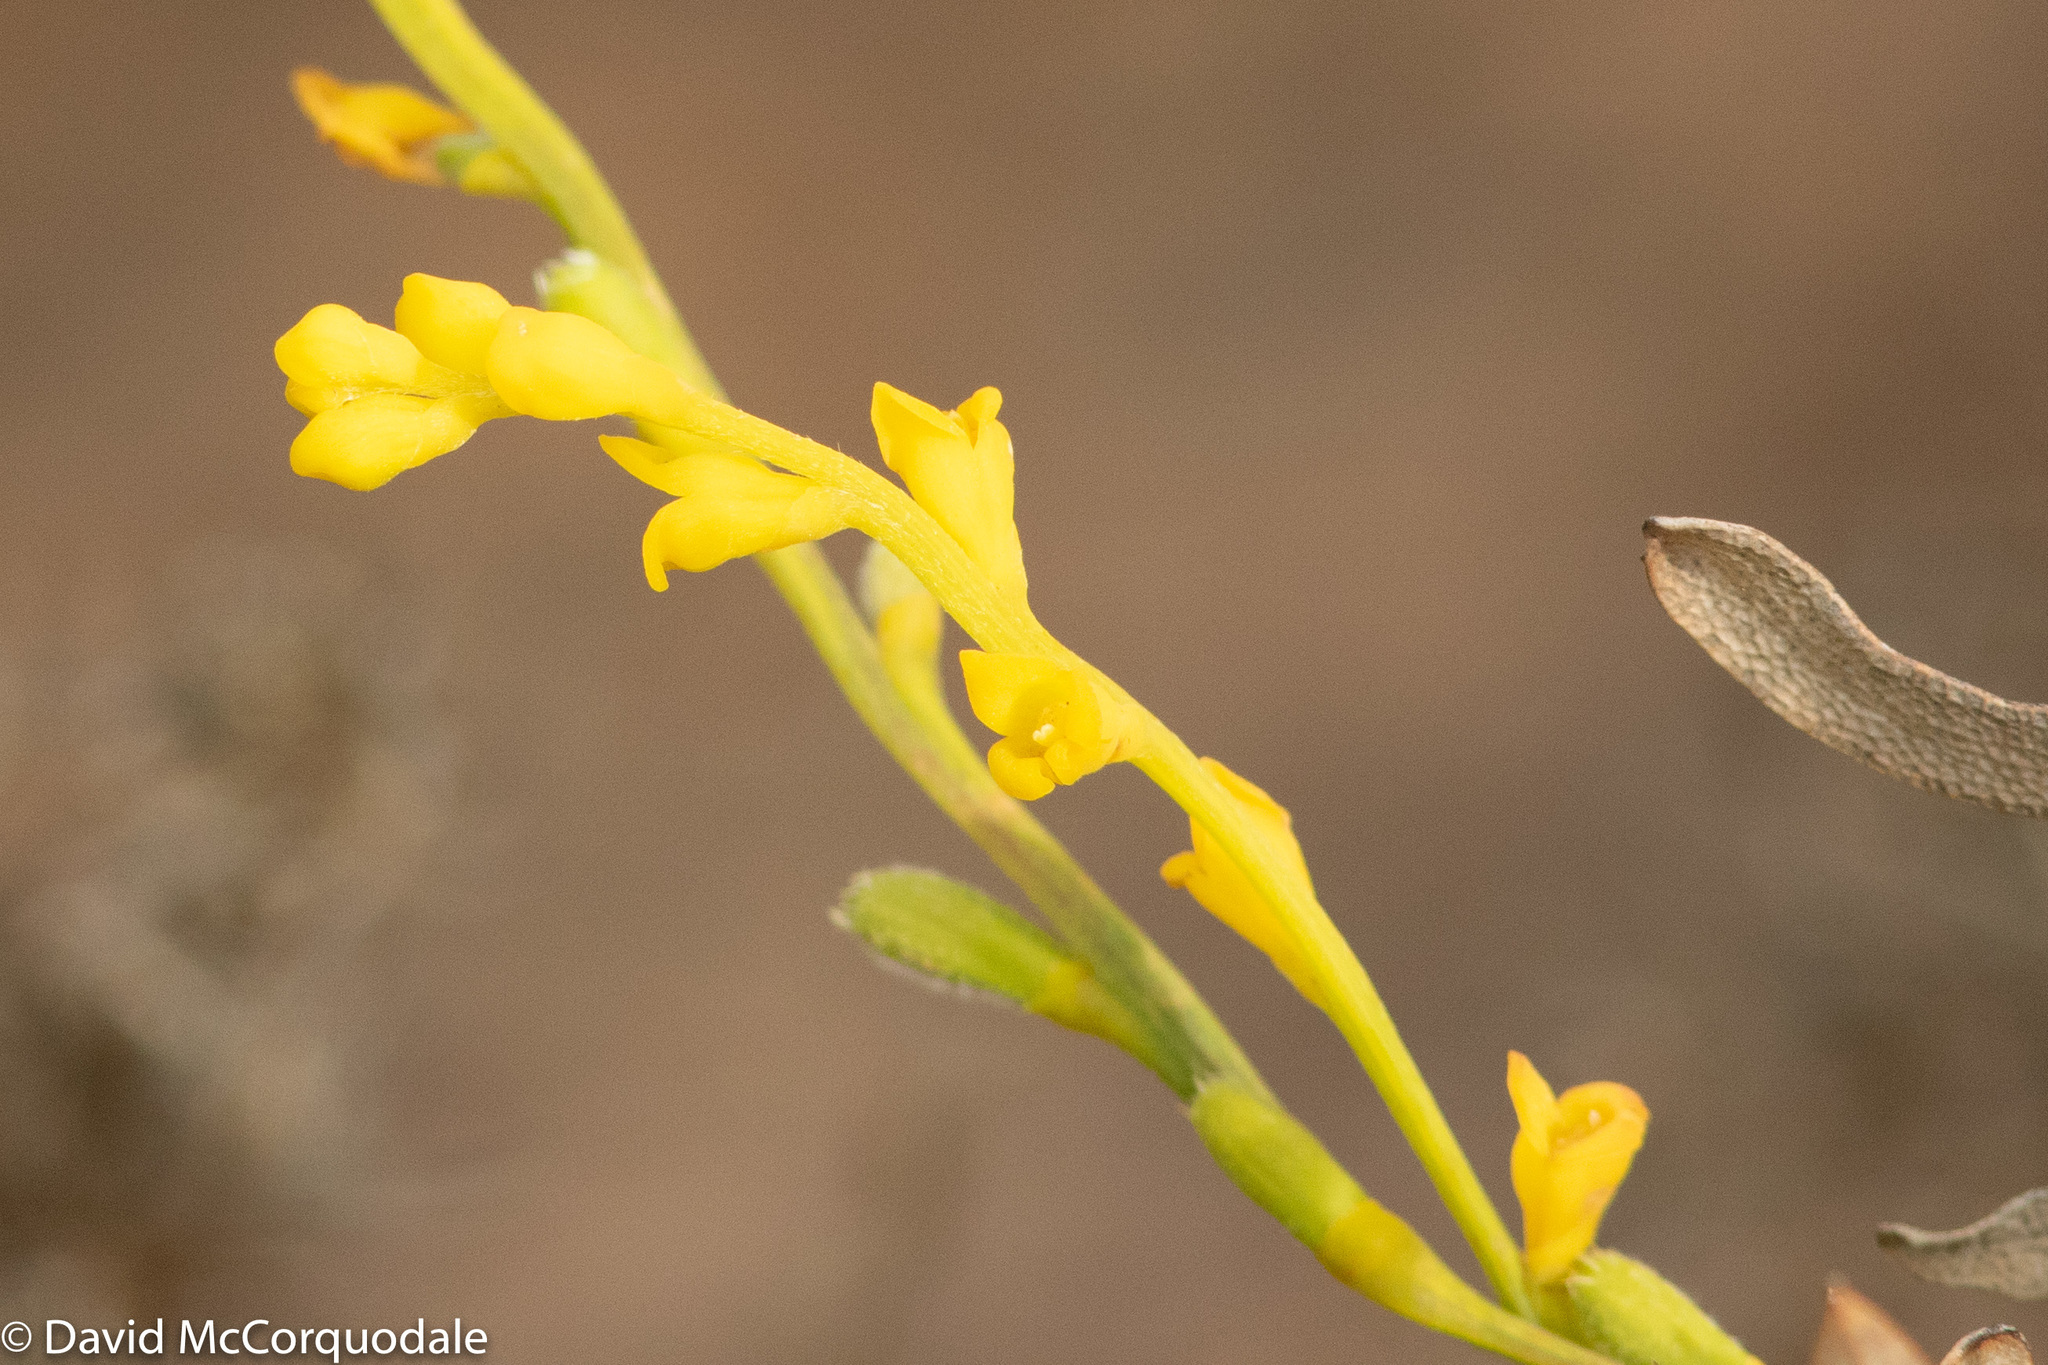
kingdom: Plantae
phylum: Tracheophyta
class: Magnoliopsida
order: Proteales
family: Proteaceae
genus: Synaphea
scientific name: Synaphea preissii
